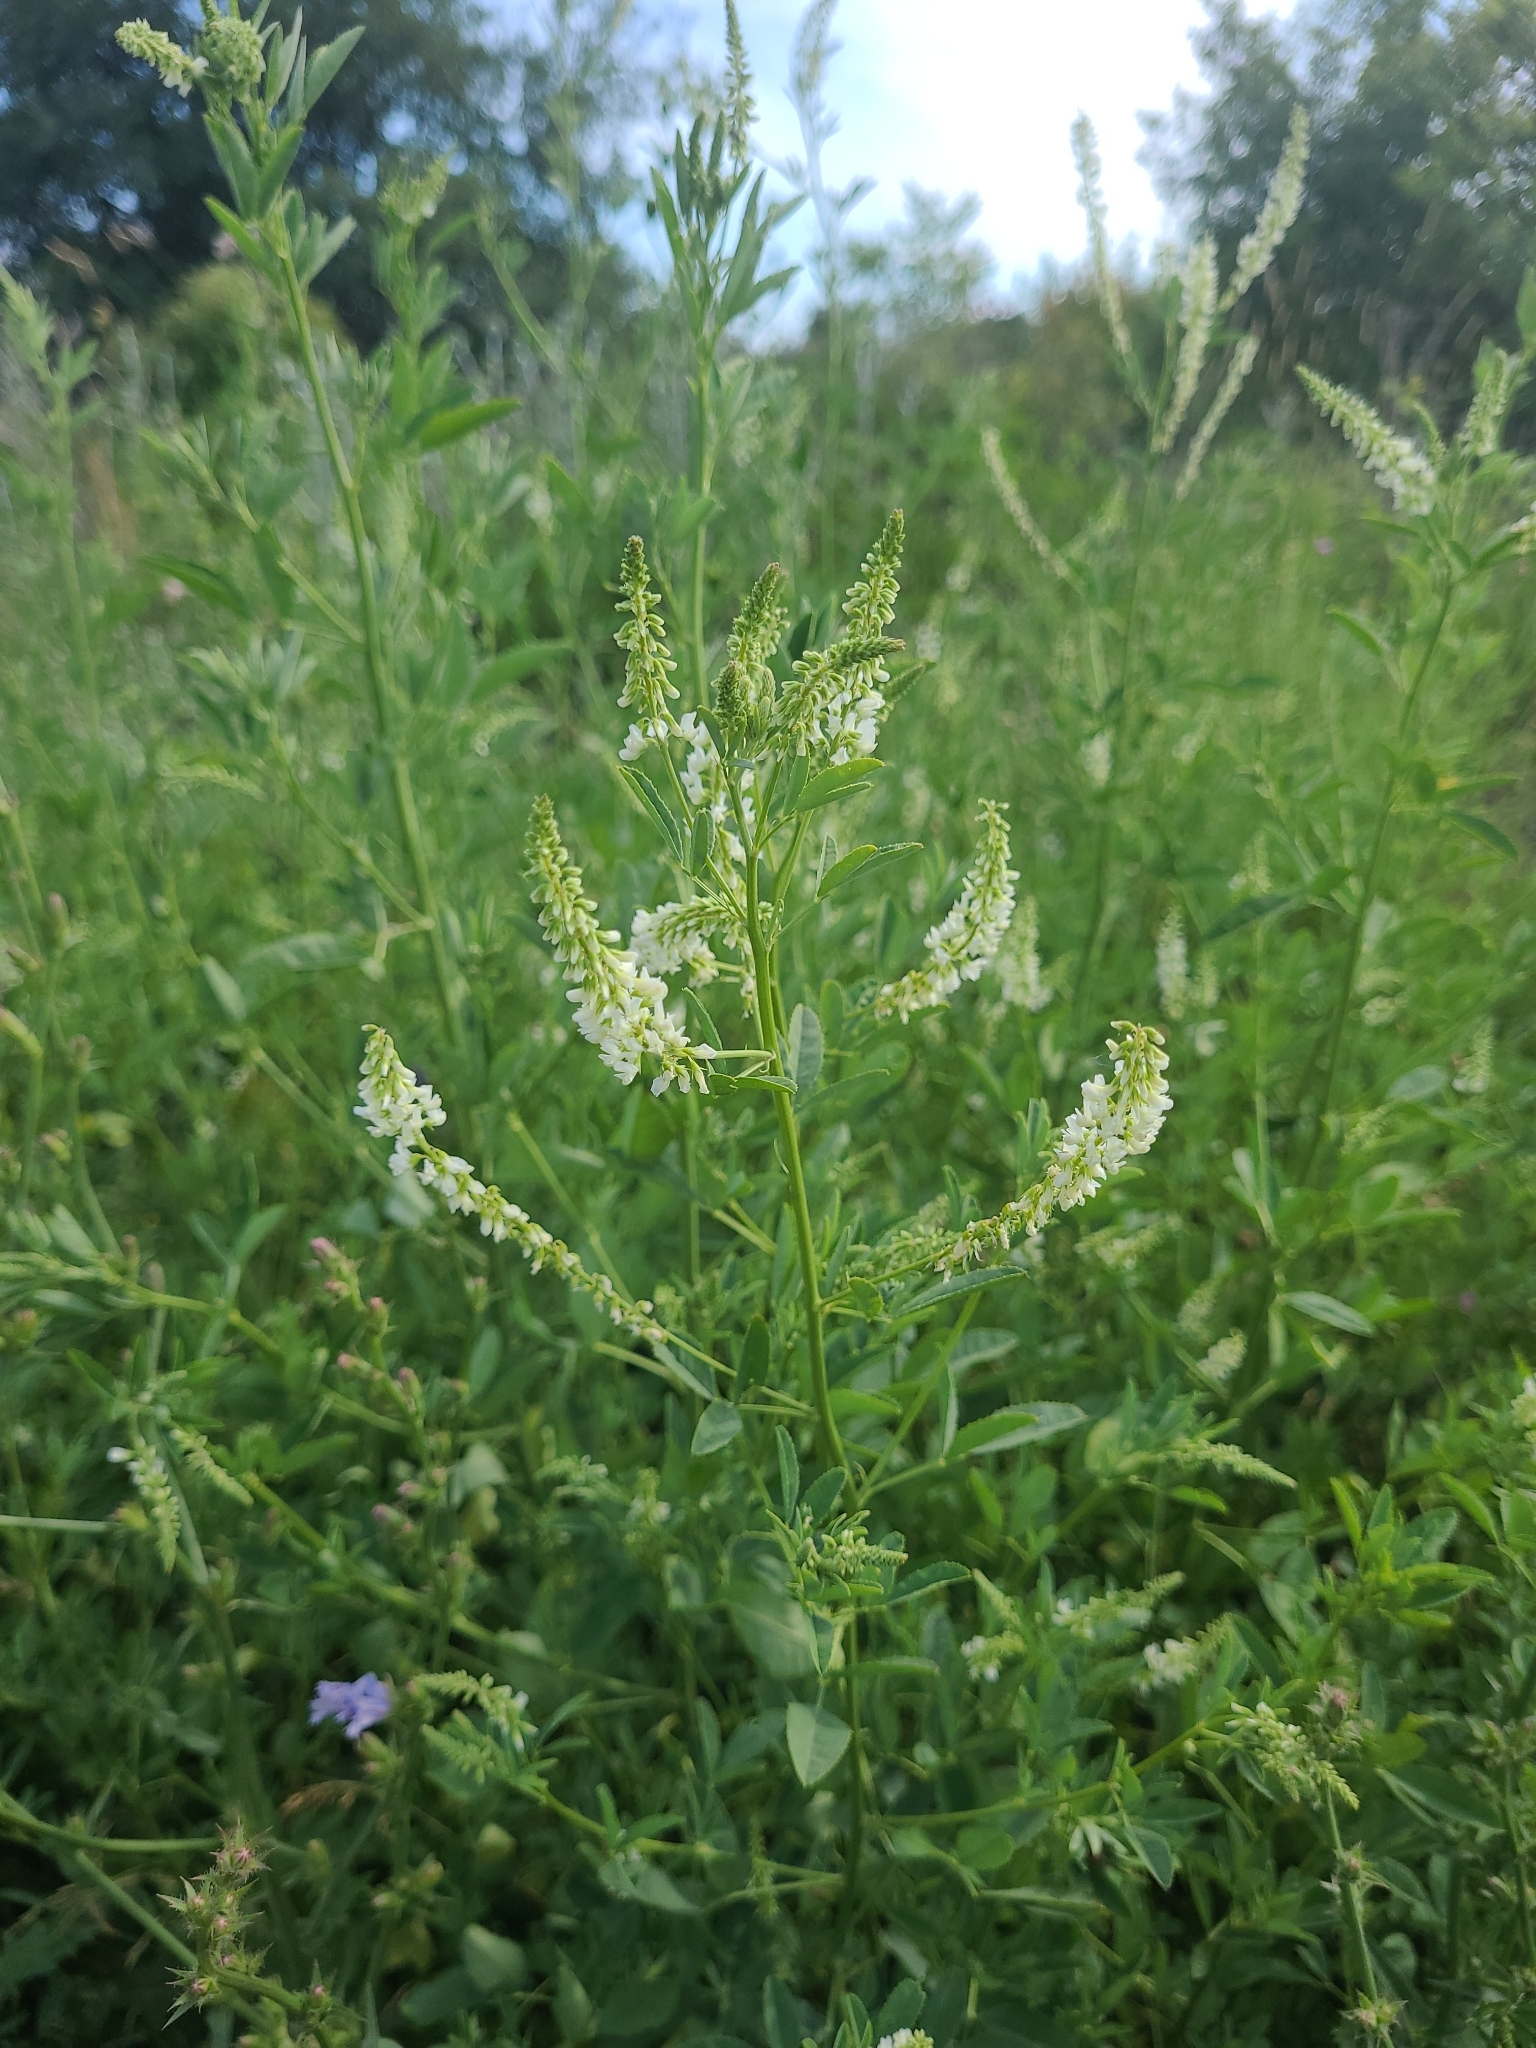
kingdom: Plantae
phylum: Tracheophyta
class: Magnoliopsida
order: Fabales
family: Fabaceae
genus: Melilotus
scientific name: Melilotus albus
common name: White melilot
